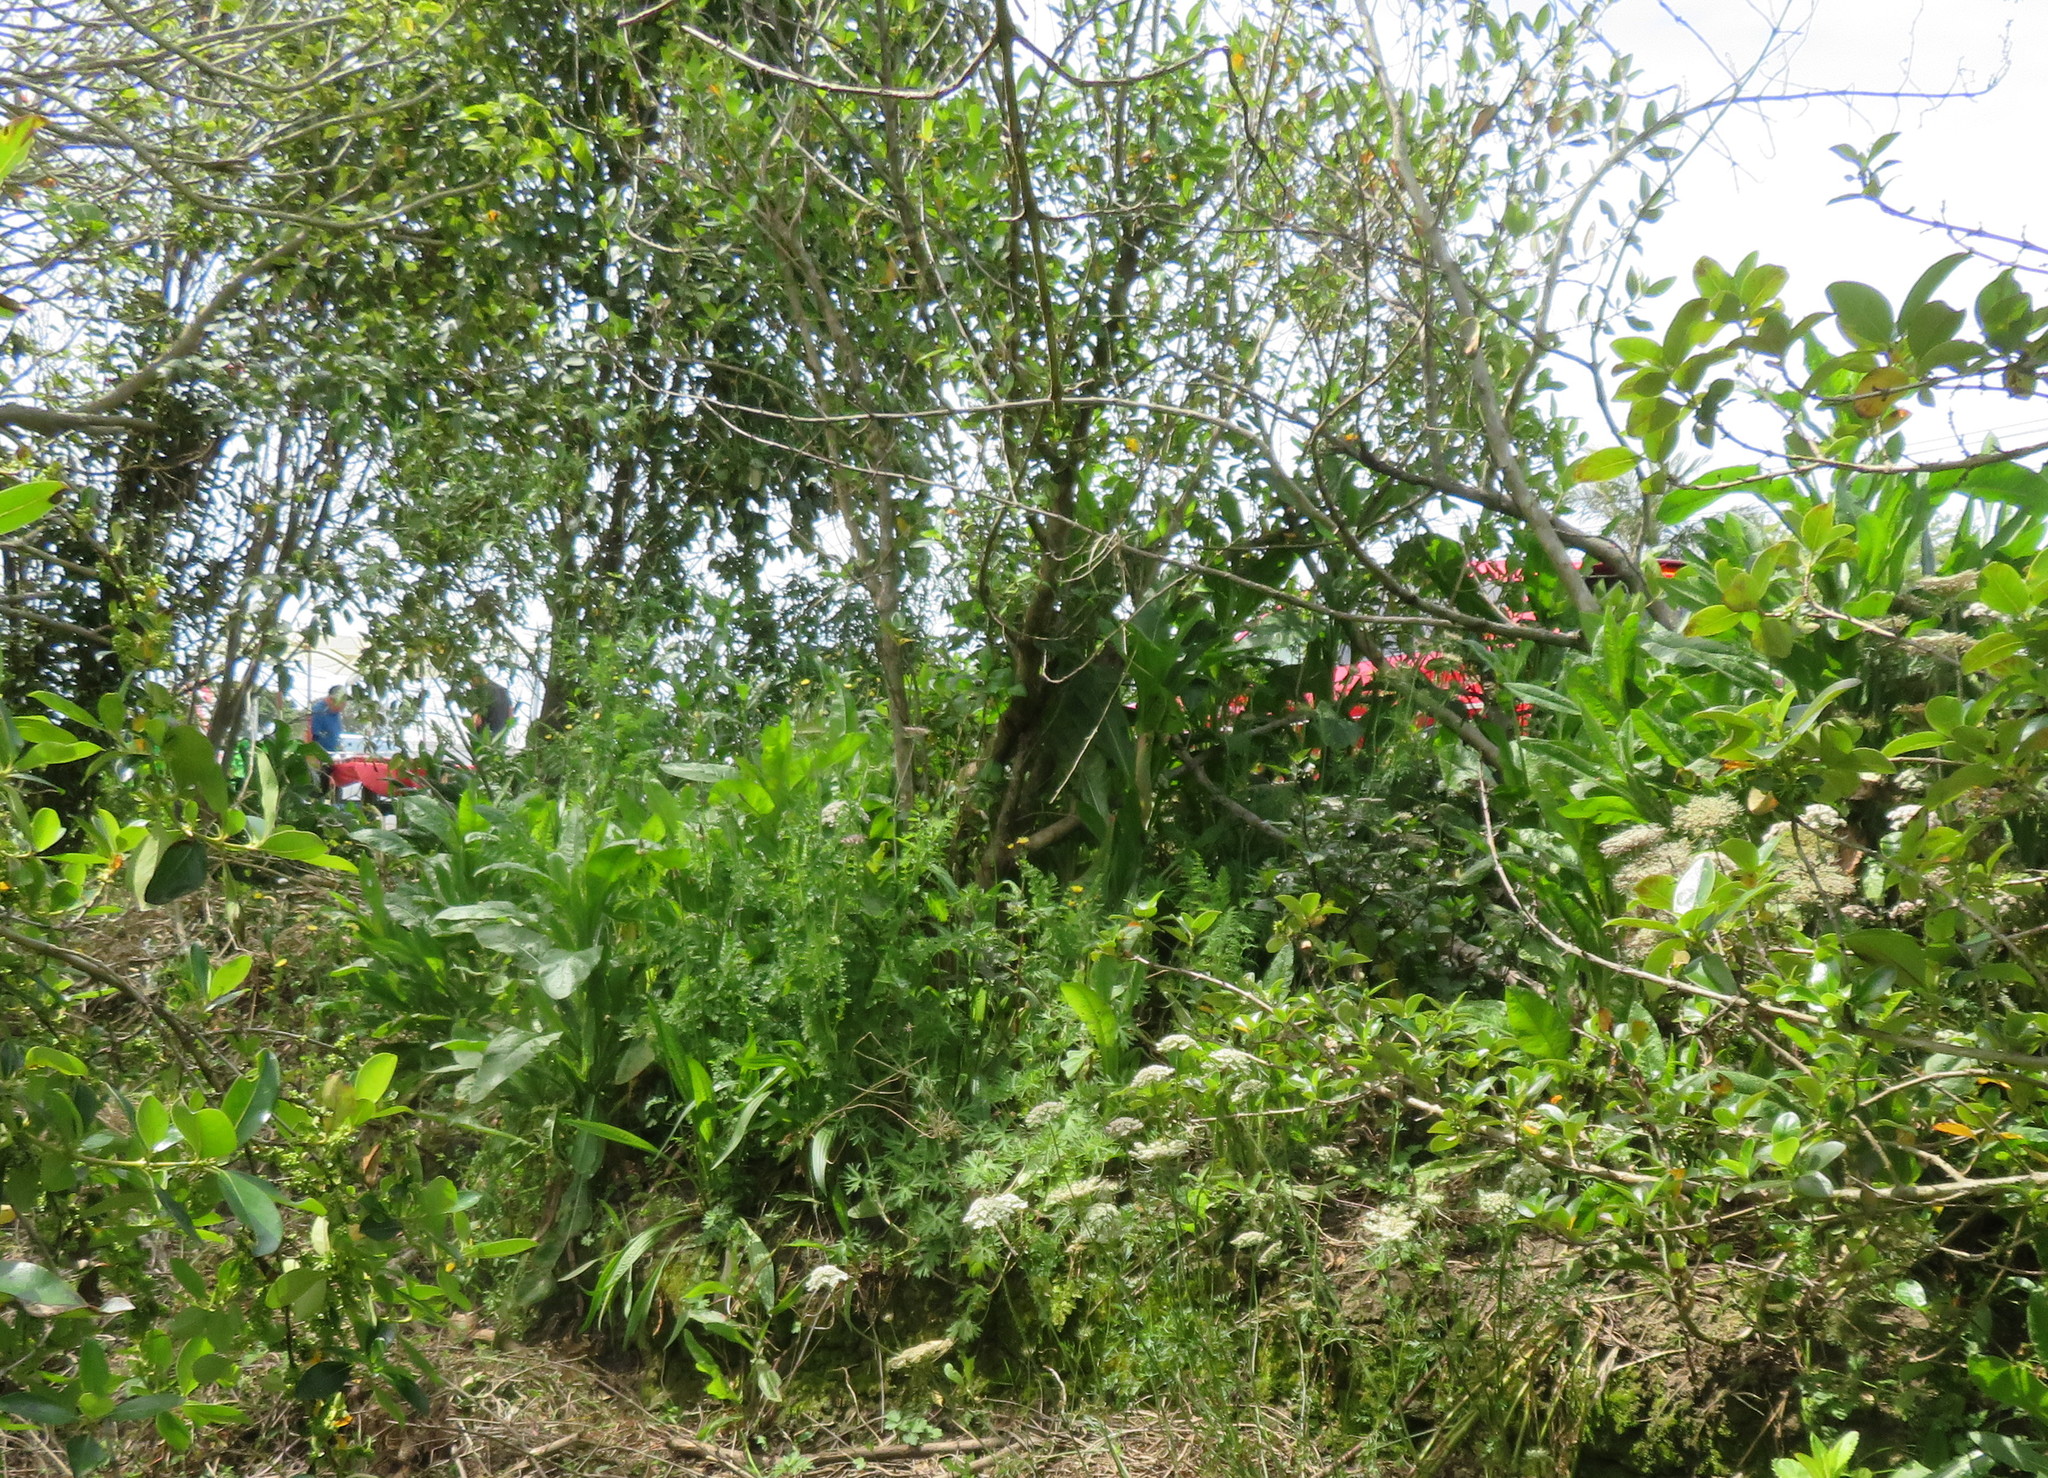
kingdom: Plantae
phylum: Tracheophyta
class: Magnoliopsida
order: Asterales
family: Asteraceae
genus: Helminthotheca
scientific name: Helminthotheca echioides
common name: Ox-tongue
